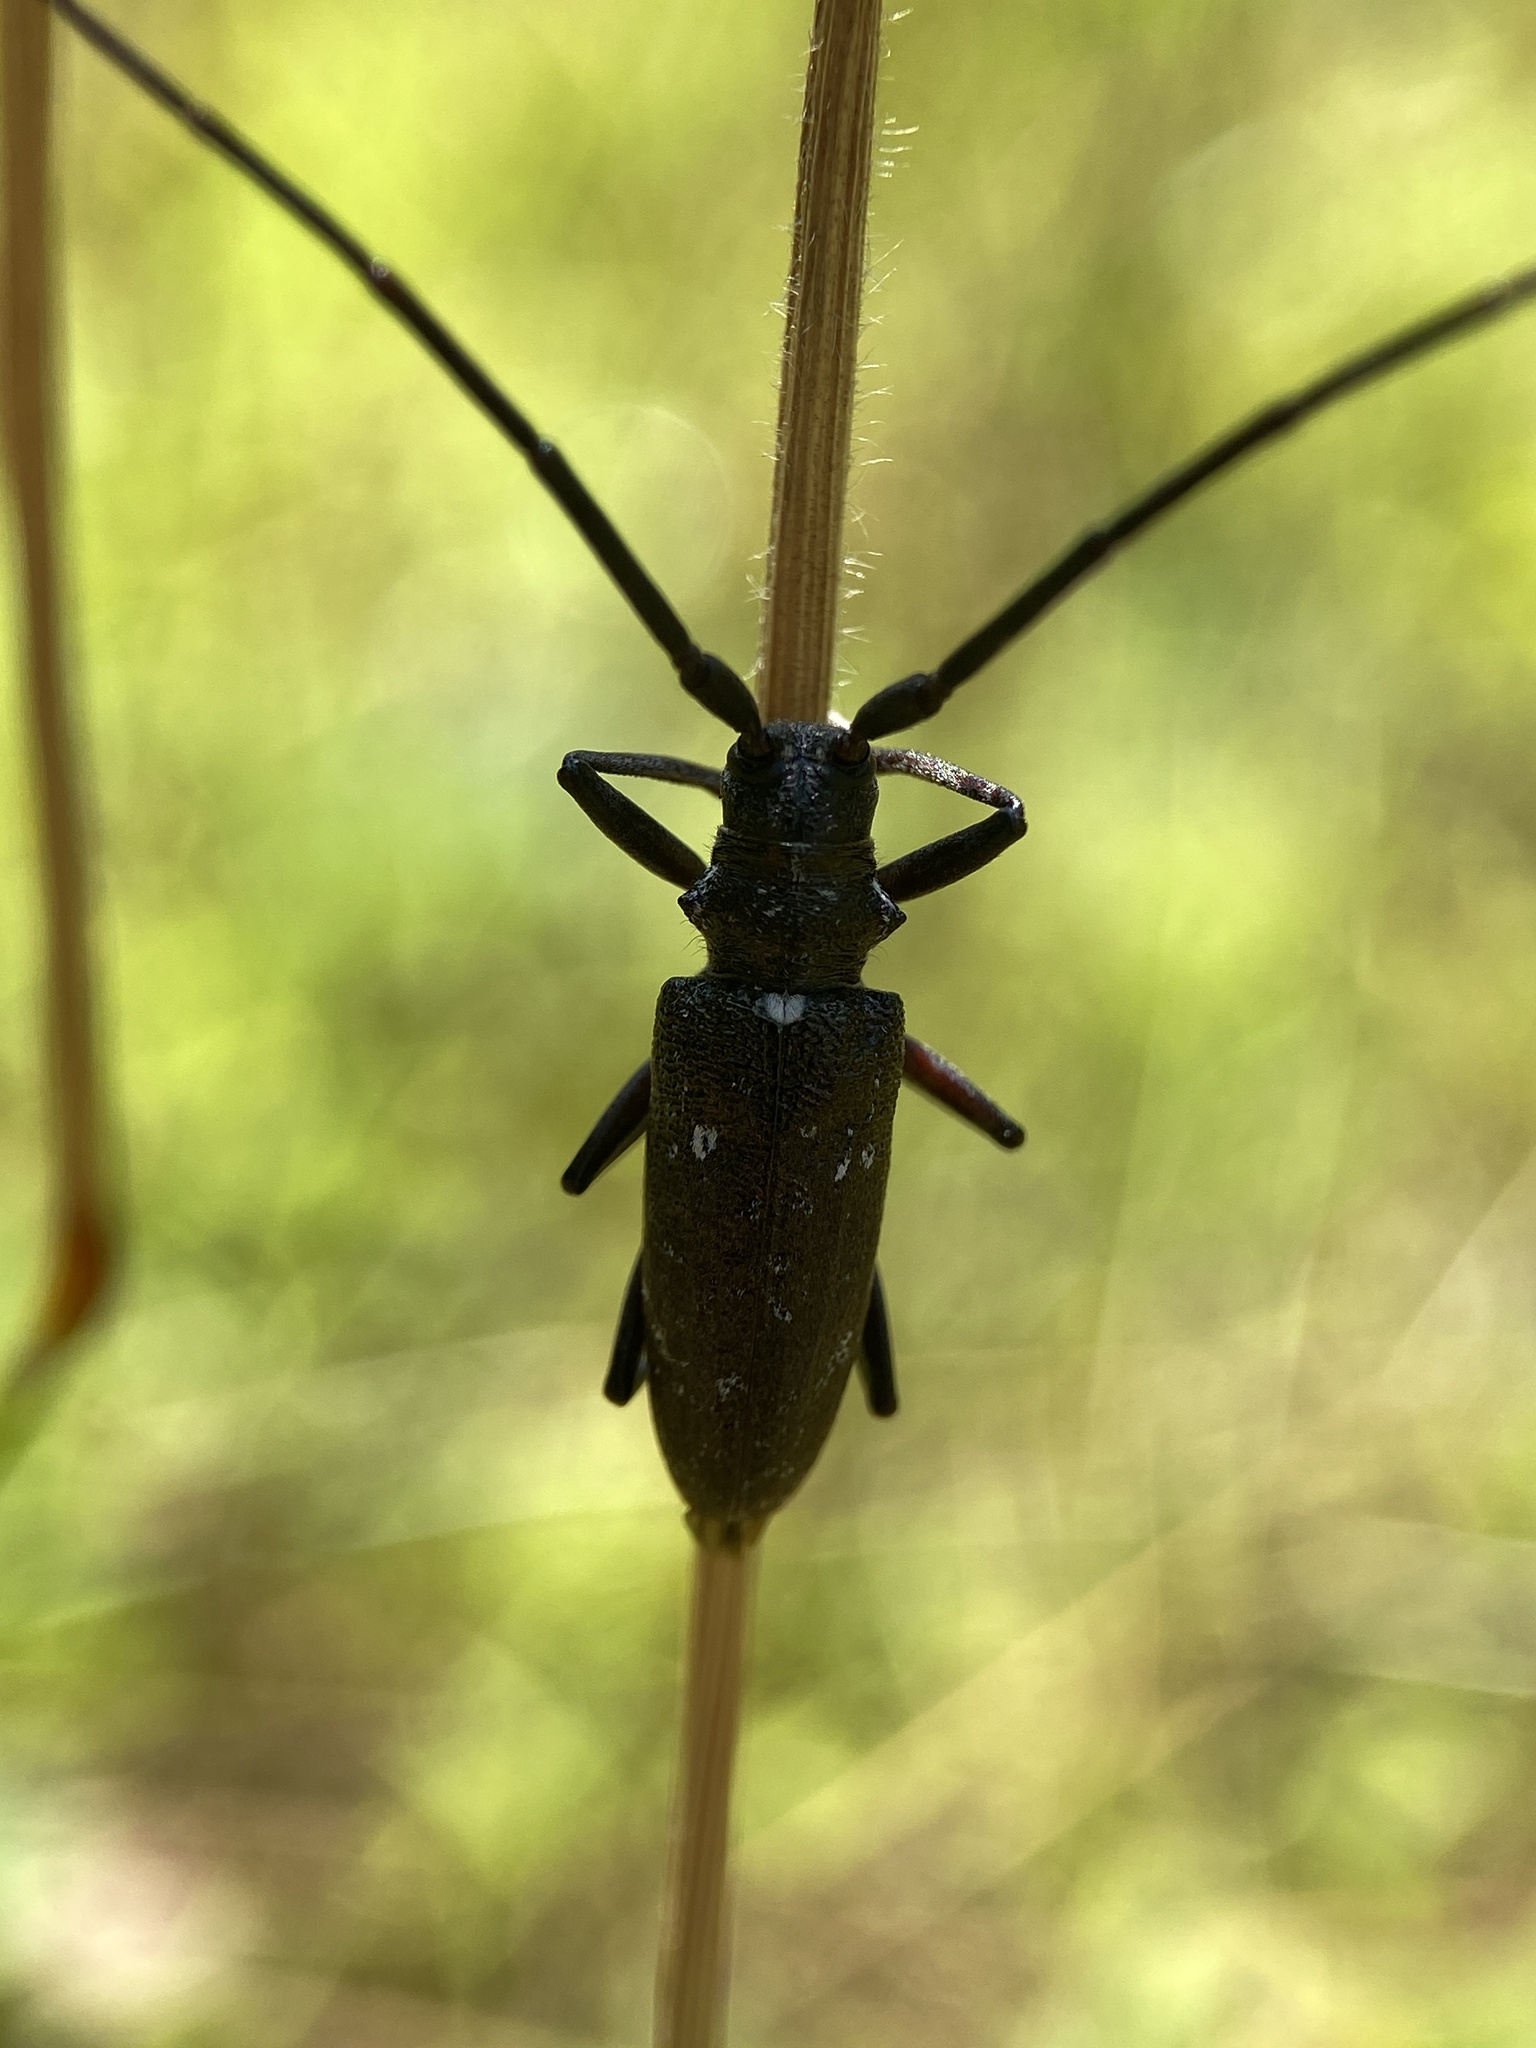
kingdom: Animalia
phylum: Arthropoda
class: Insecta
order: Coleoptera
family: Cerambycidae
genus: Monochamus
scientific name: Monochamus scutellatus
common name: White-spotted sawyer beetle
